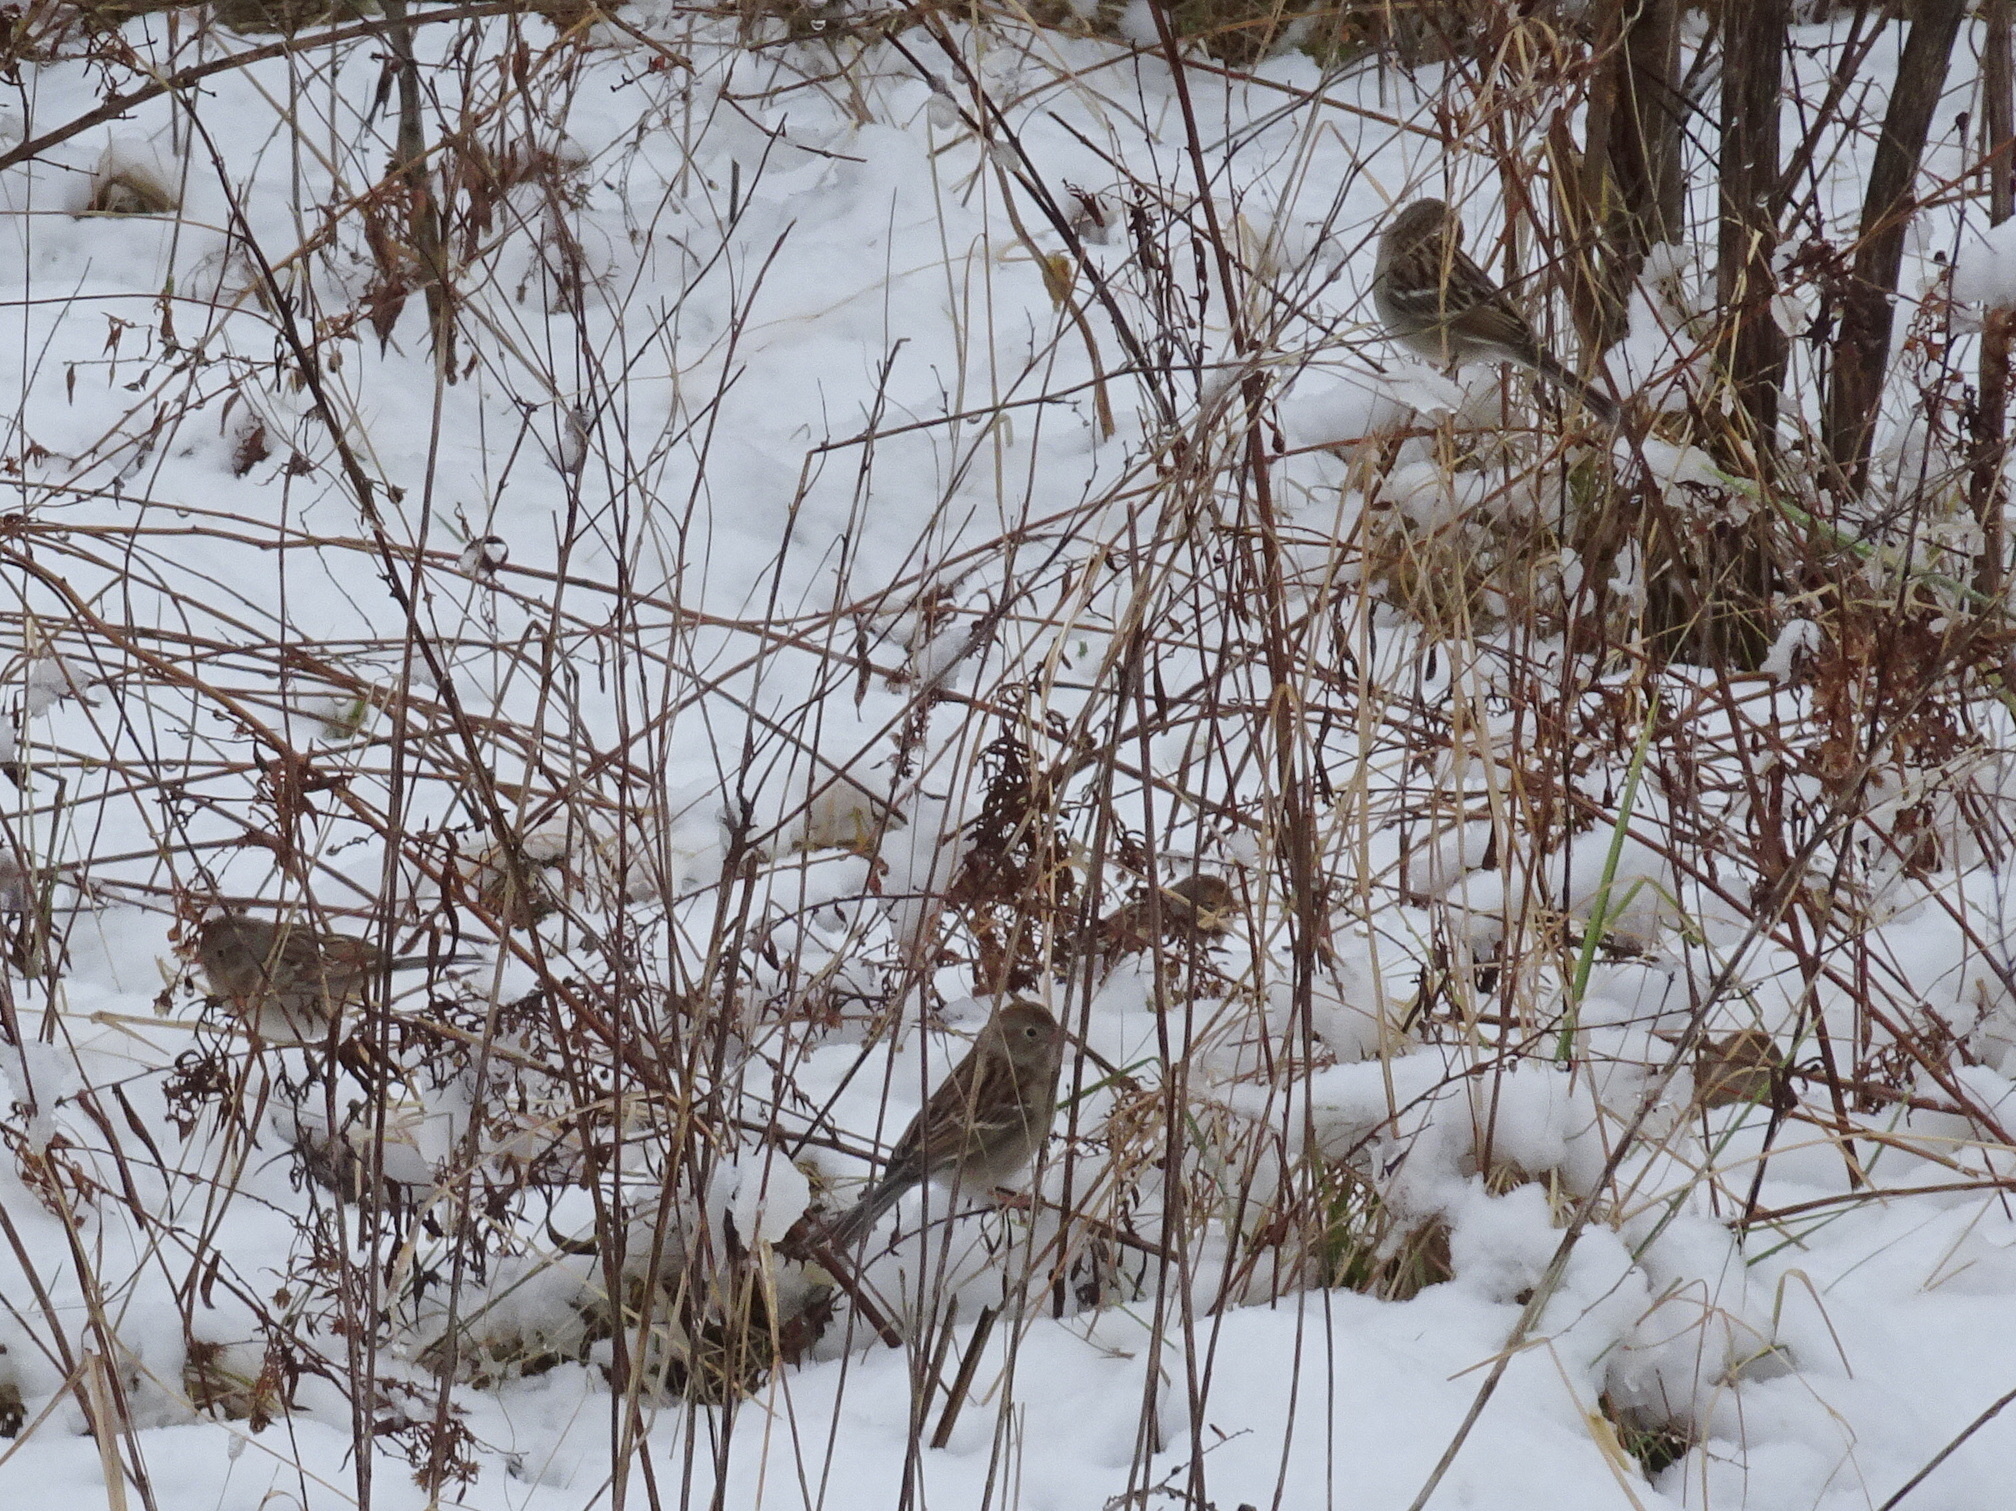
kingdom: Animalia
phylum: Chordata
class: Aves
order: Passeriformes
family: Passerellidae
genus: Spizella
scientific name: Spizella pusilla
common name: Field sparrow
